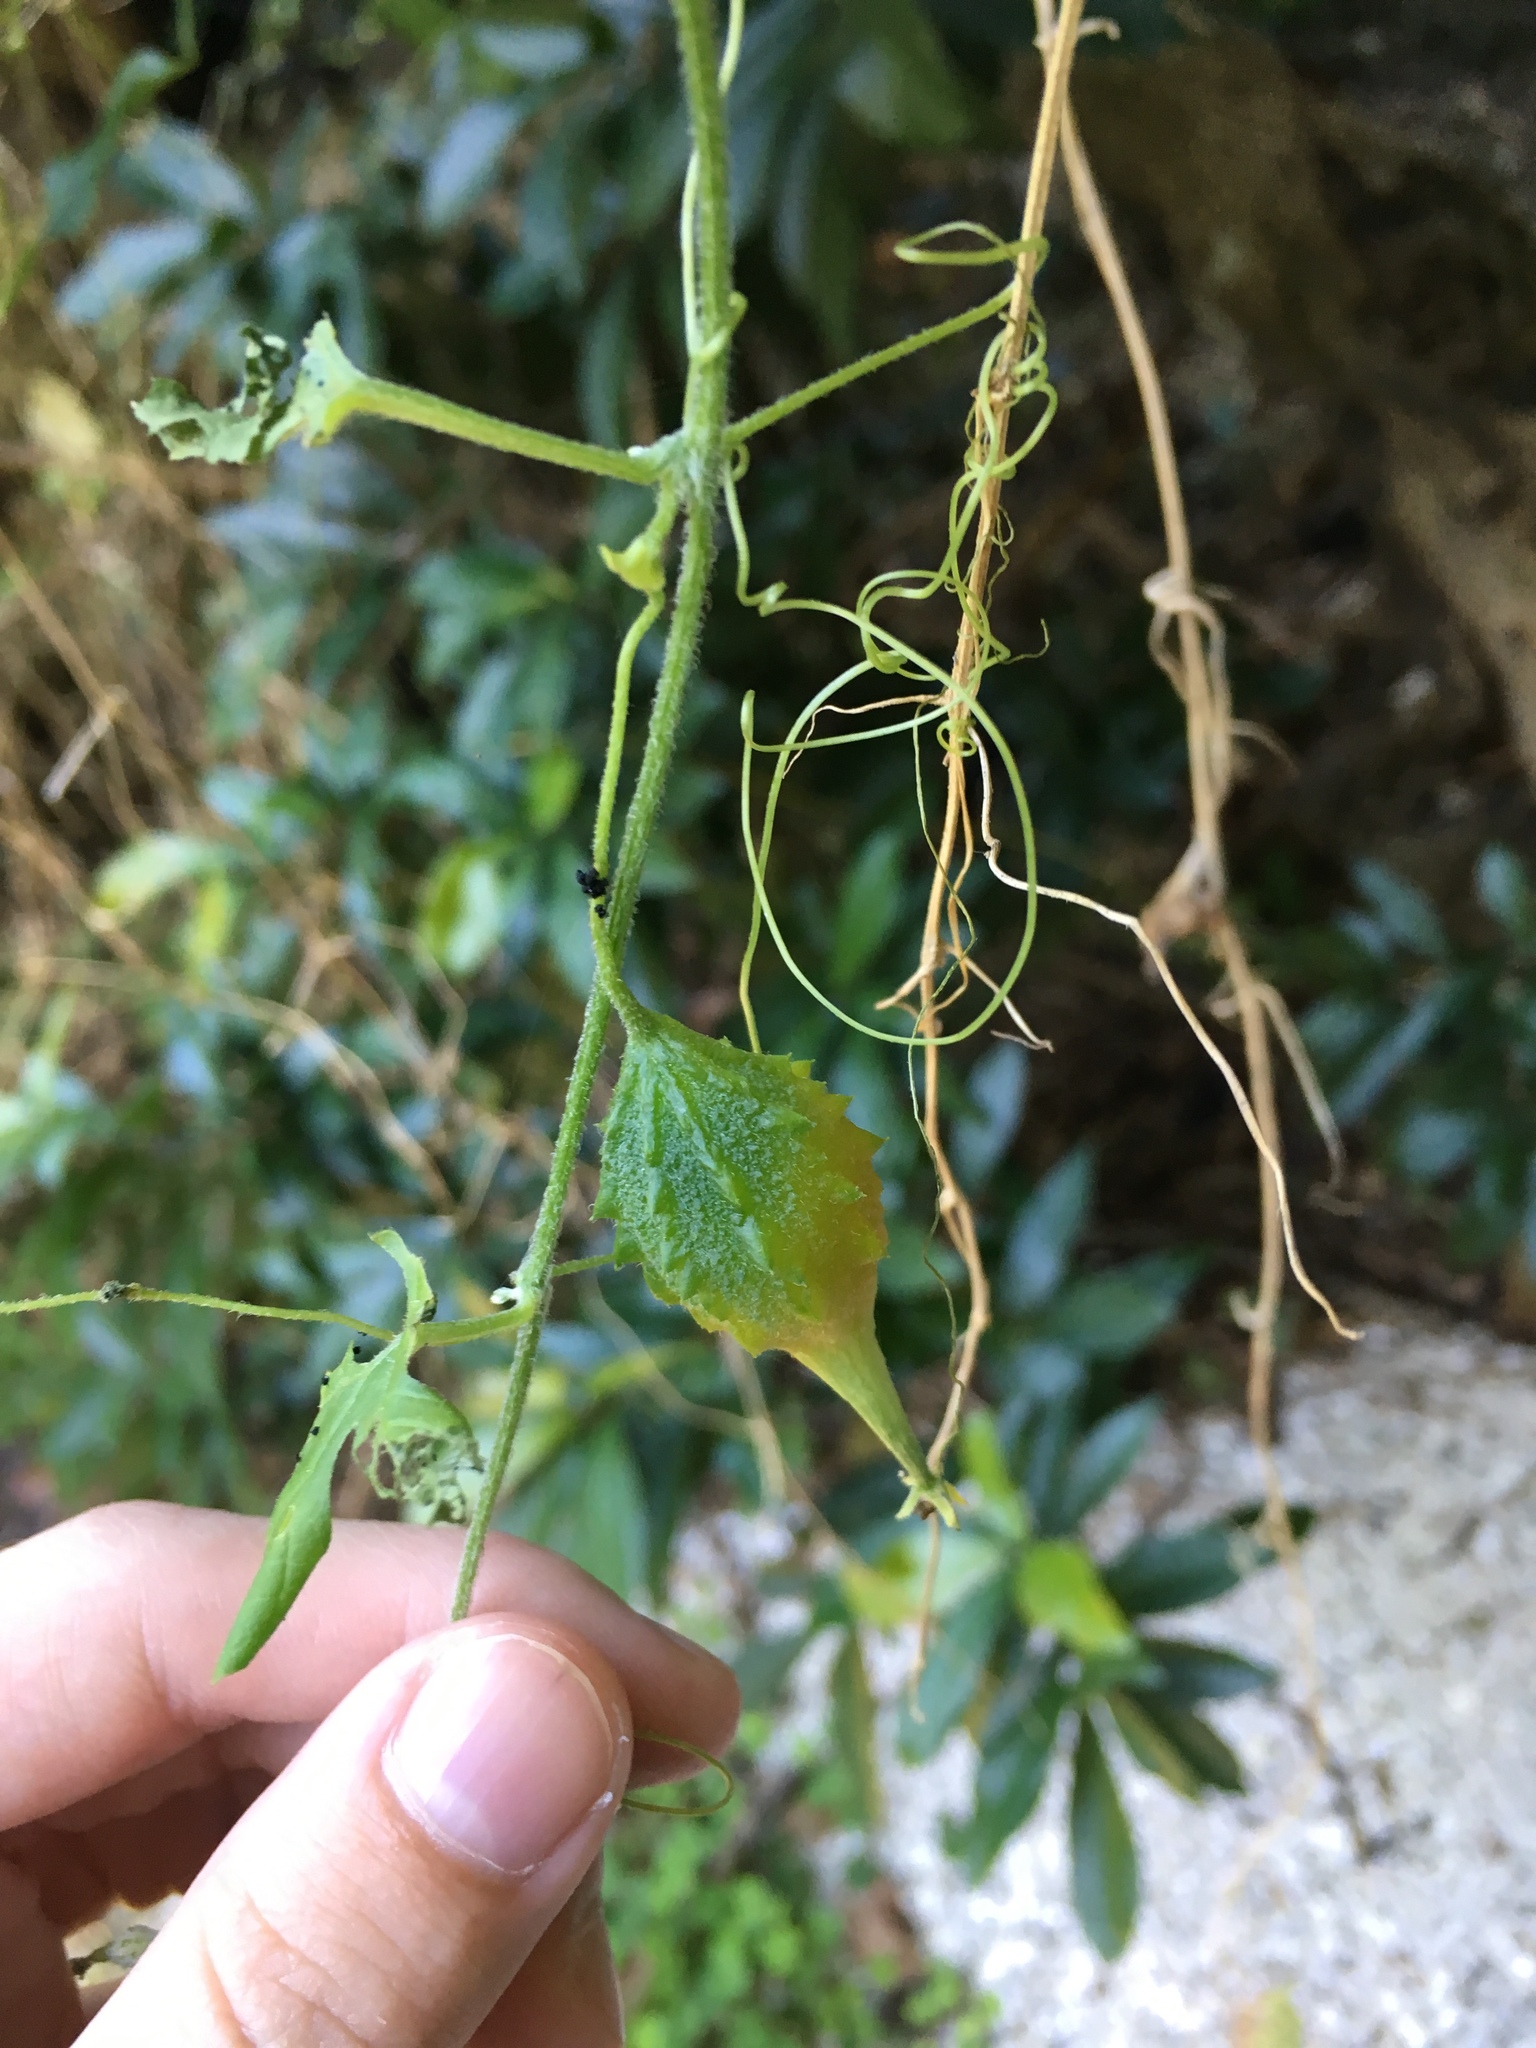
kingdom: Plantae
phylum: Tracheophyta
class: Magnoliopsida
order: Cucurbitales
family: Cucurbitaceae
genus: Momordica
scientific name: Momordica charantia
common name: Balsampear
